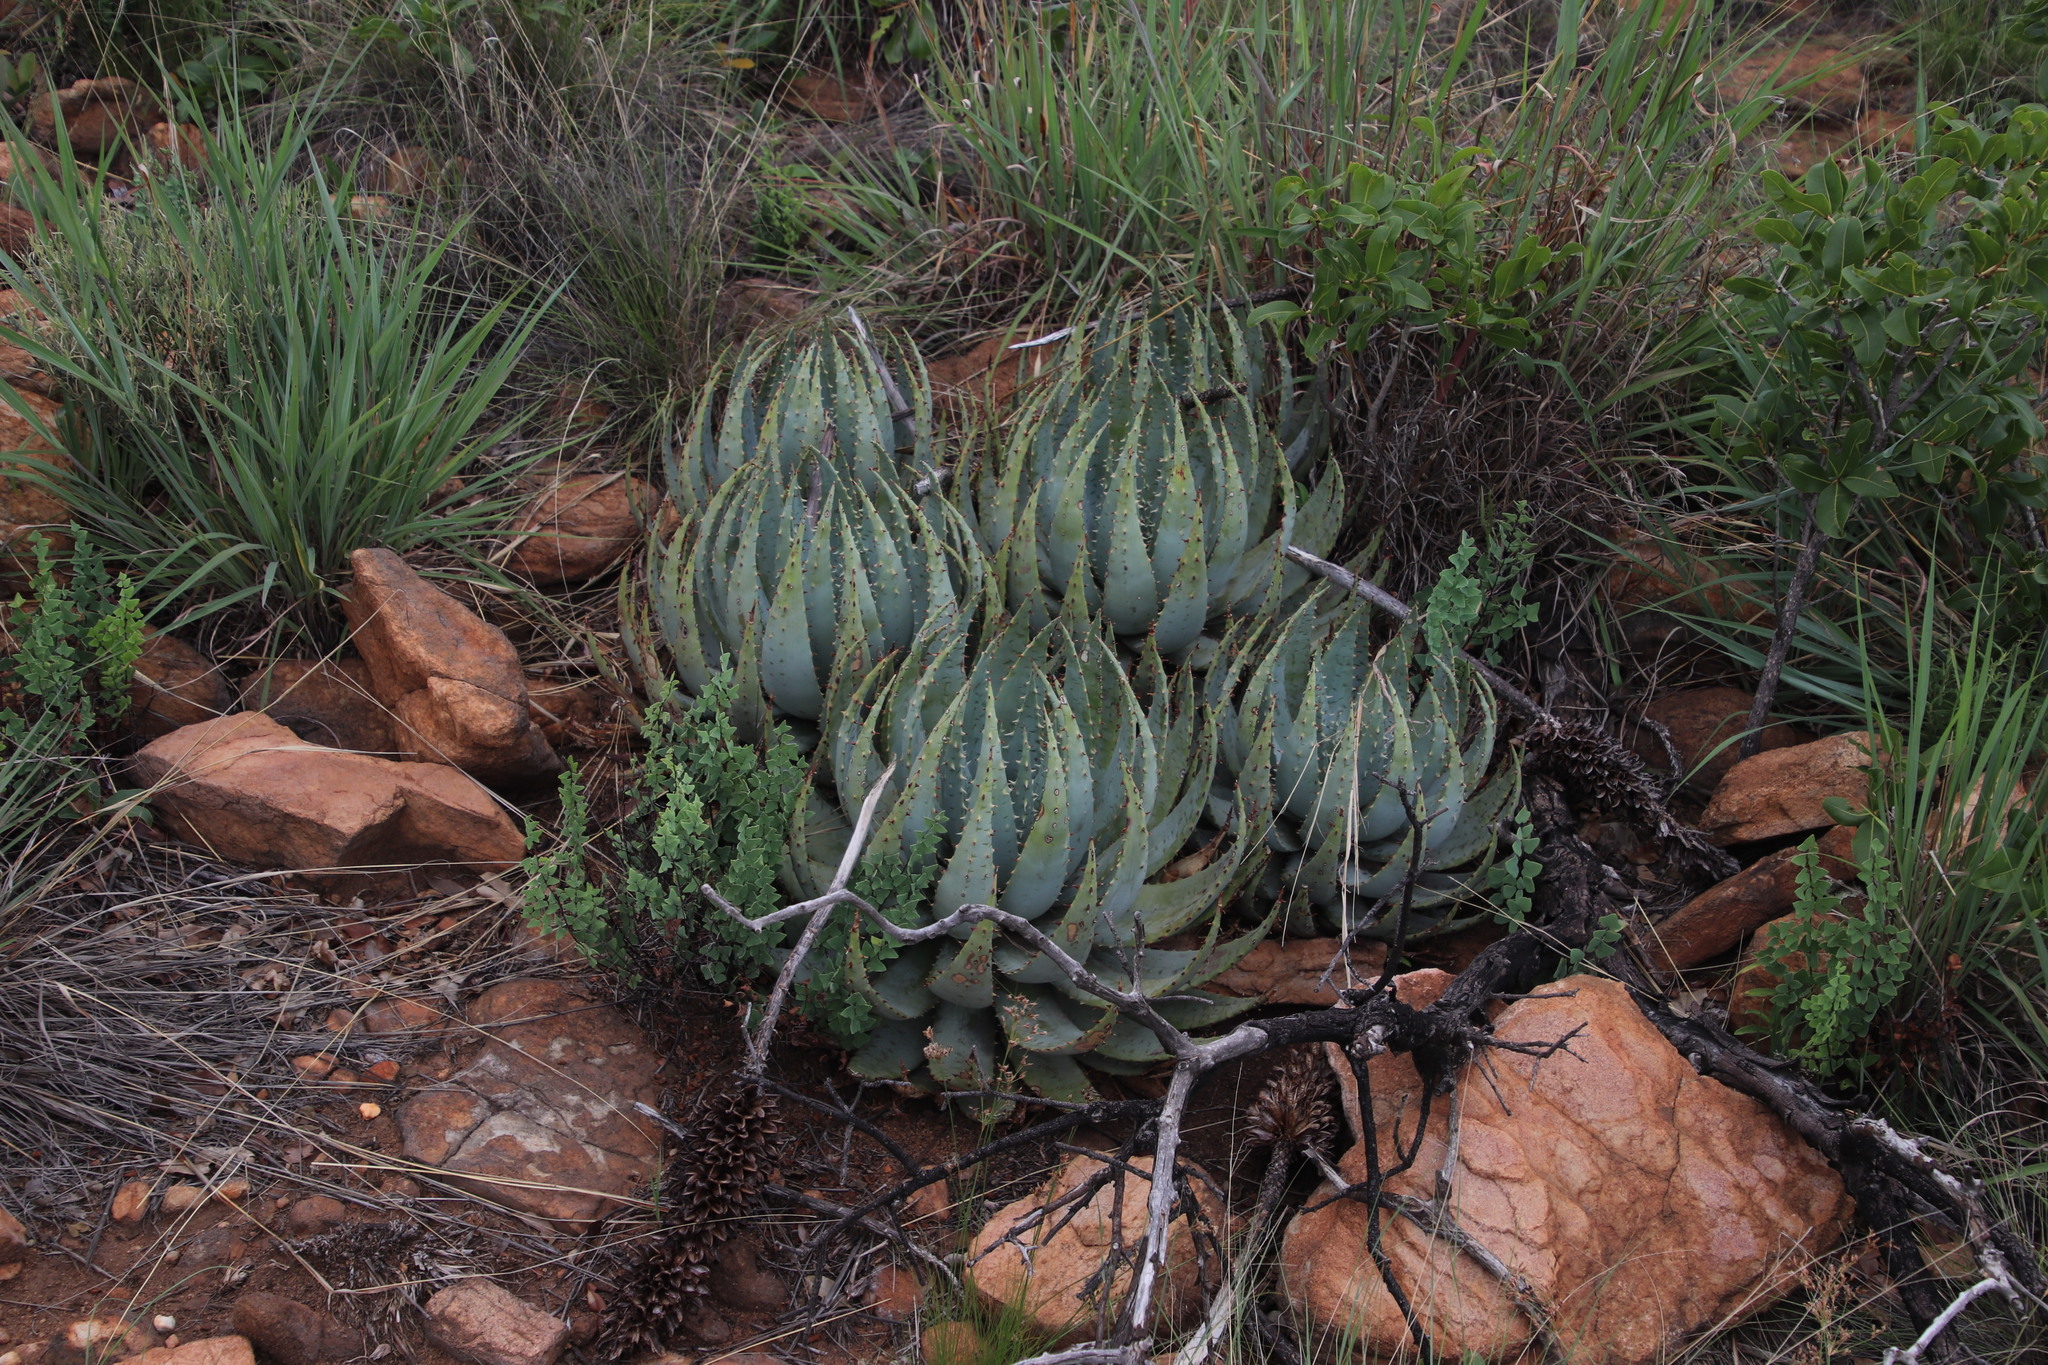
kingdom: Plantae
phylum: Tracheophyta
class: Liliopsida
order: Asparagales
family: Asphodelaceae
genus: Aloe
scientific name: Aloe peglerae
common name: Red-hot poker
